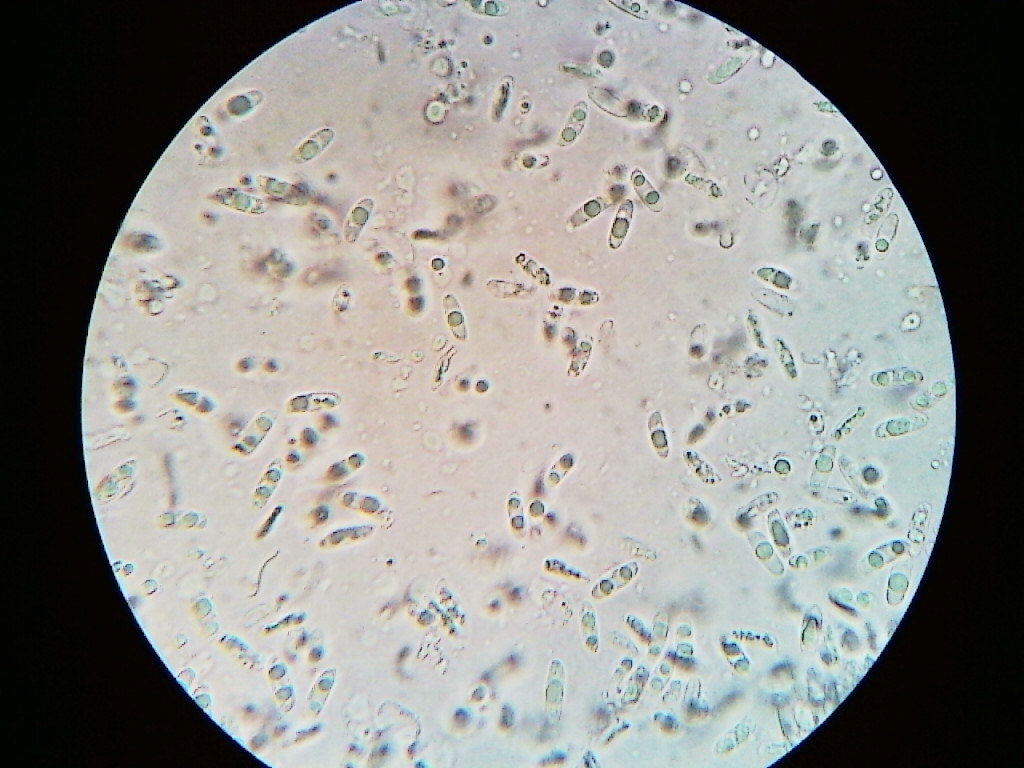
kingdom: Fungi
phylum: Basidiomycota
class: Agaricomycetes
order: Polyporales
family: Polyporaceae
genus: Cerioporus
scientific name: Cerioporus varius
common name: Elegant polypore
